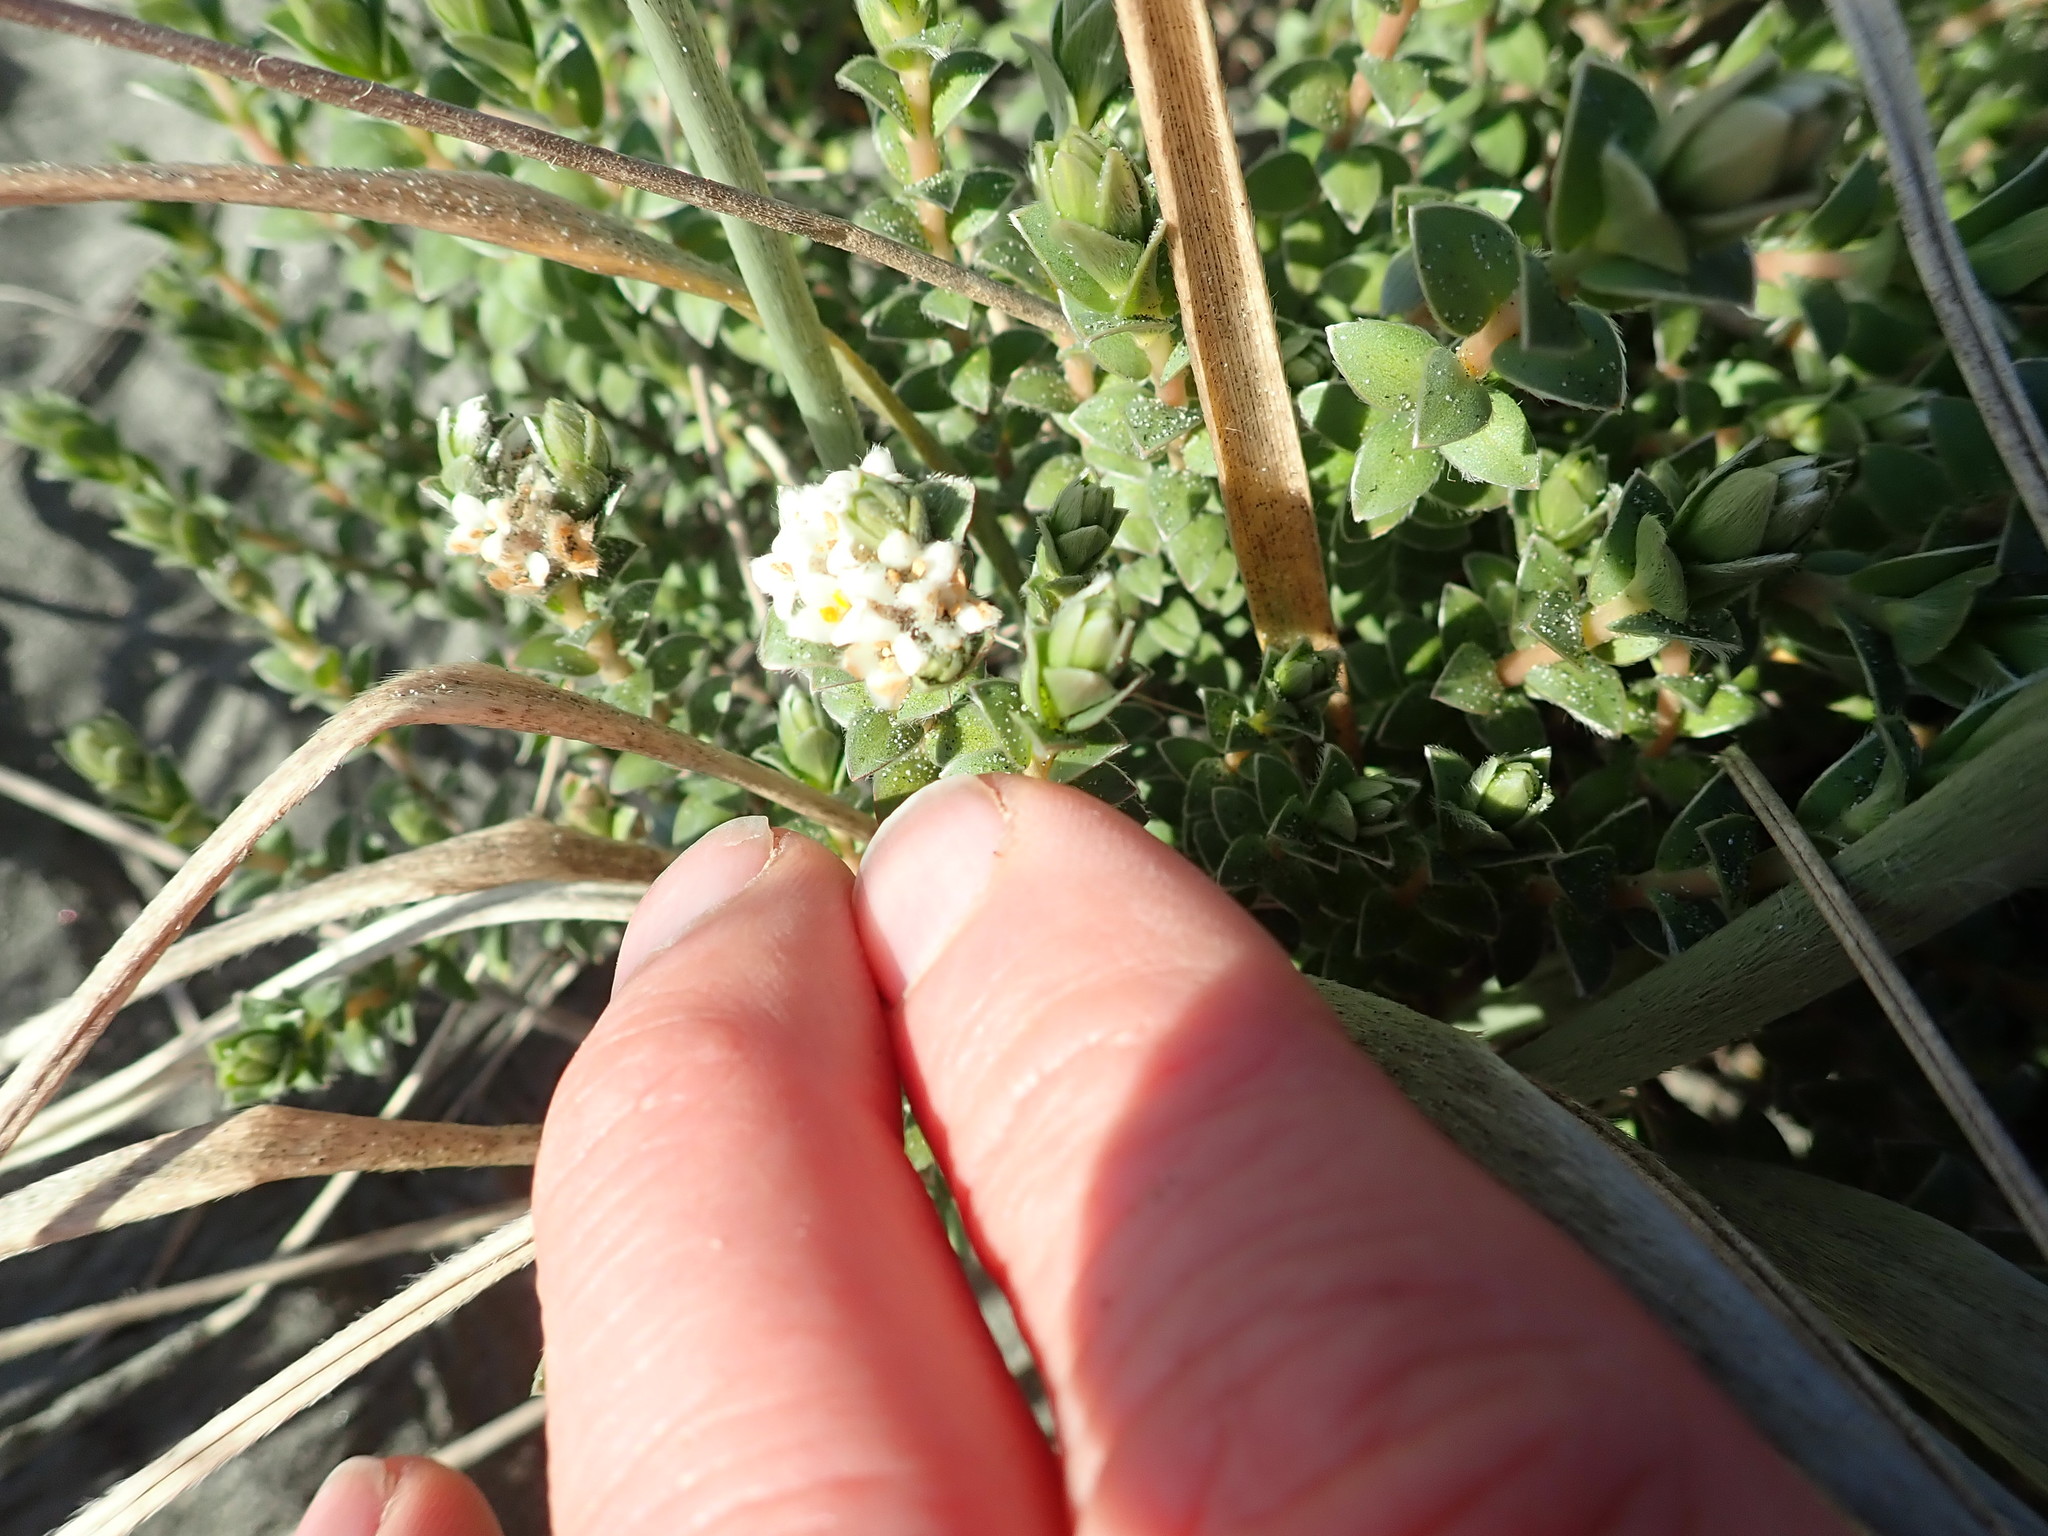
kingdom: Plantae
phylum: Tracheophyta
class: Magnoliopsida
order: Malvales
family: Thymelaeaceae
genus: Pimelea
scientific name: Pimelea villosa
